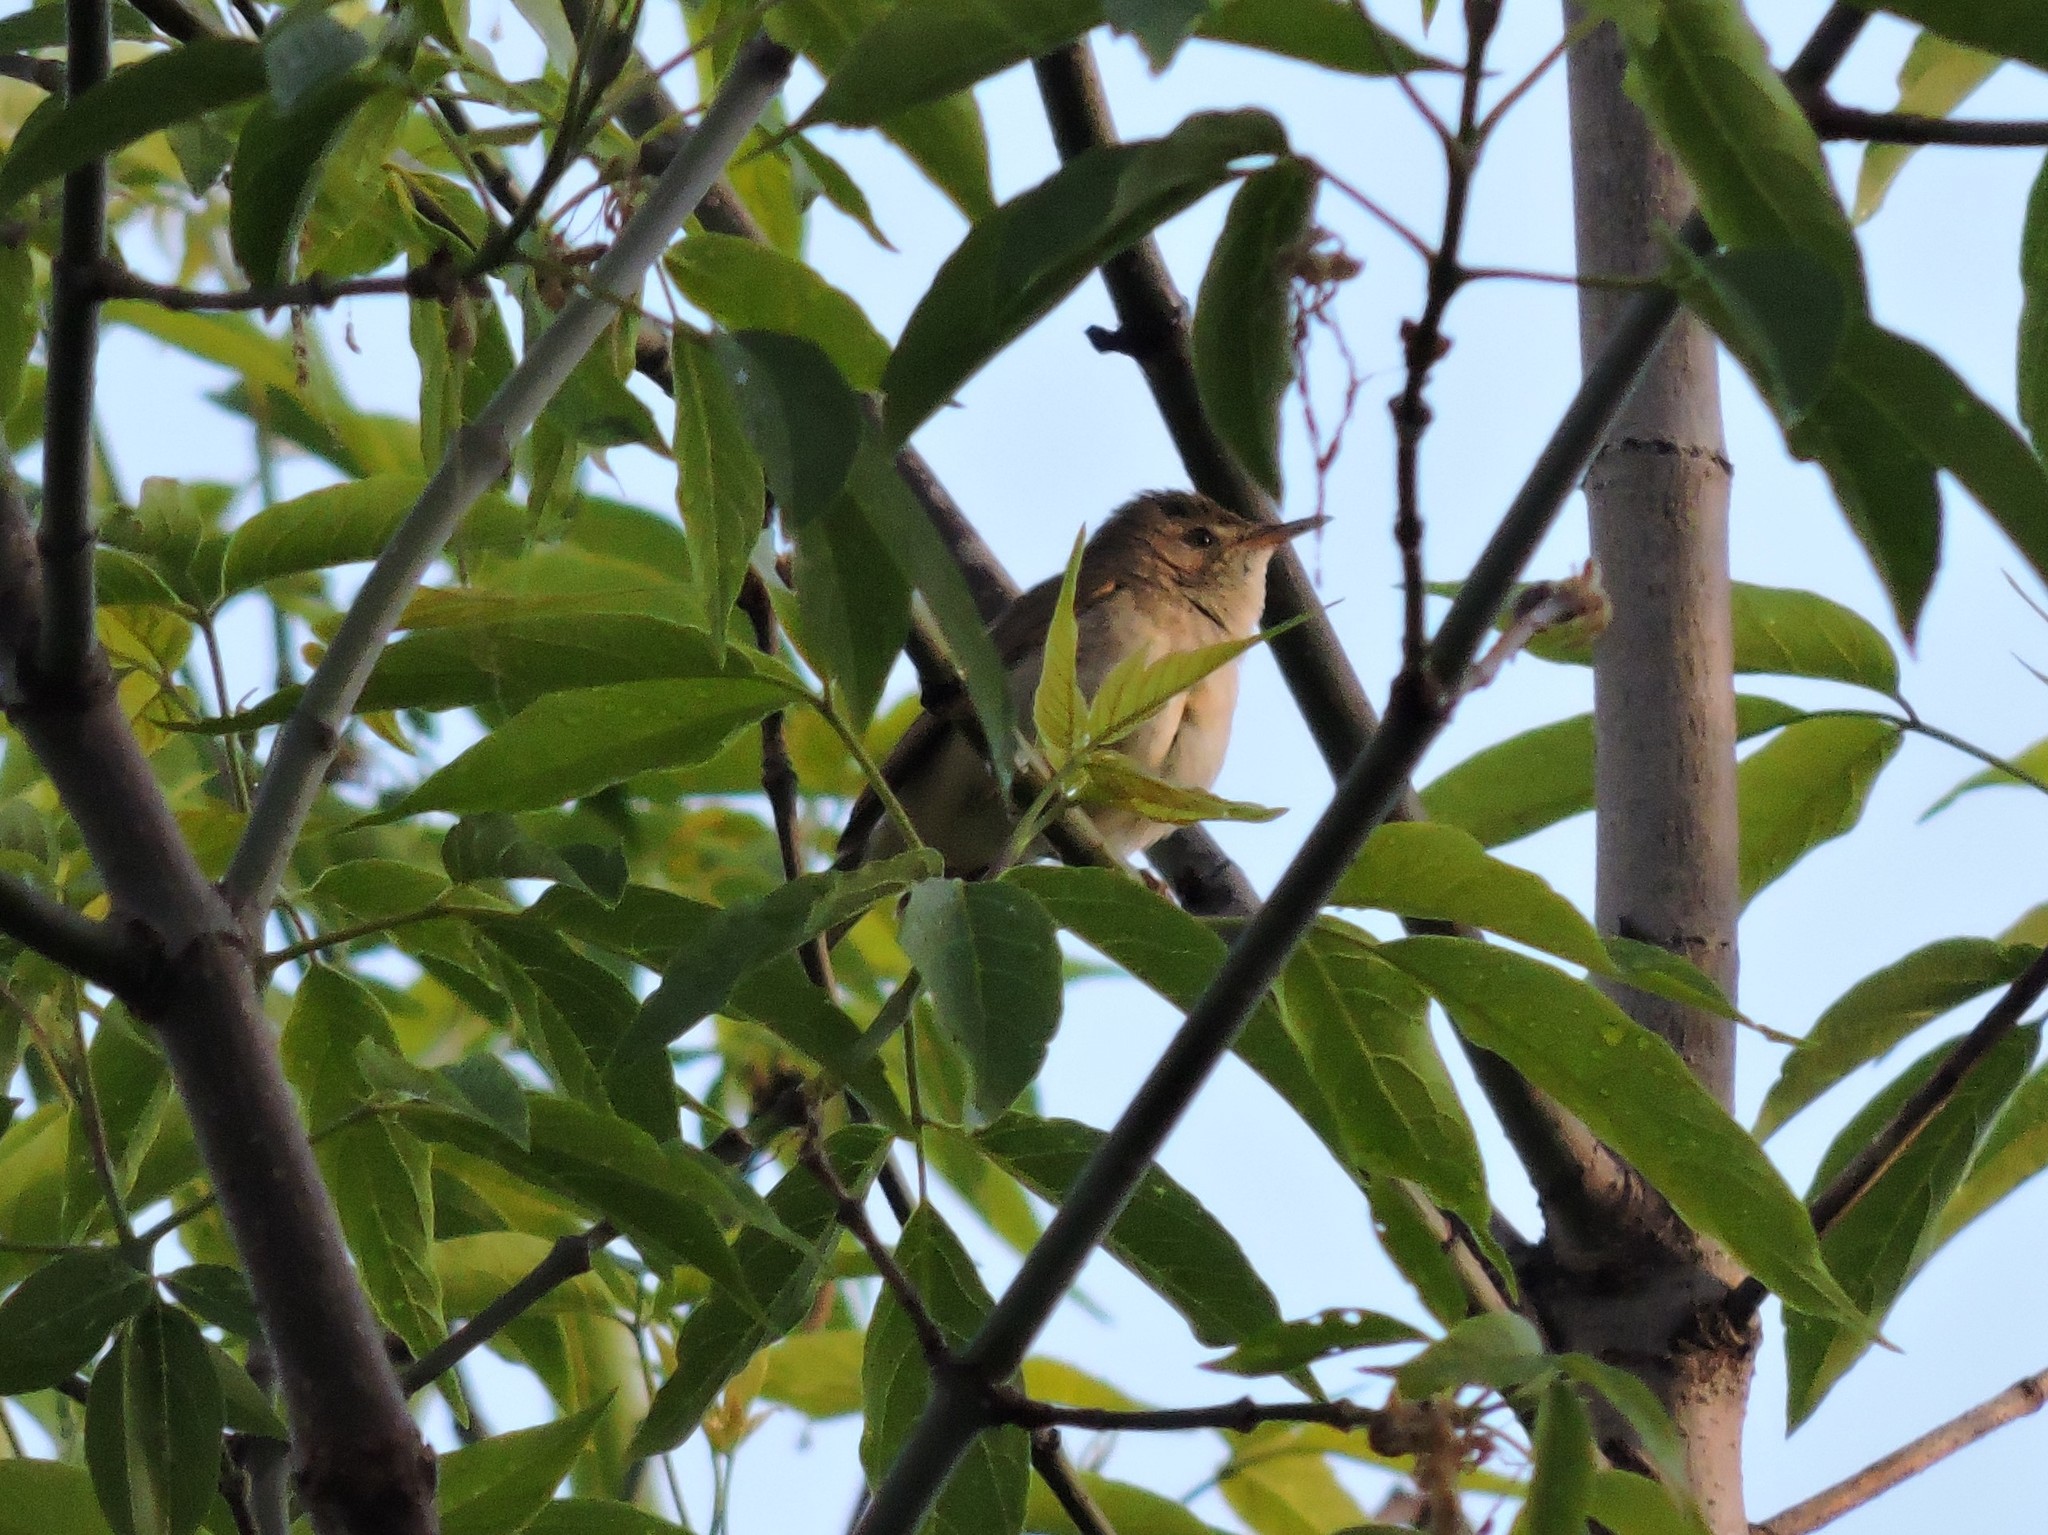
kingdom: Animalia
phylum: Chordata
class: Aves
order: Passeriformes
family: Acrocephalidae
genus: Acrocephalus
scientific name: Acrocephalus dumetorum
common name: Blyth's reed warbler
